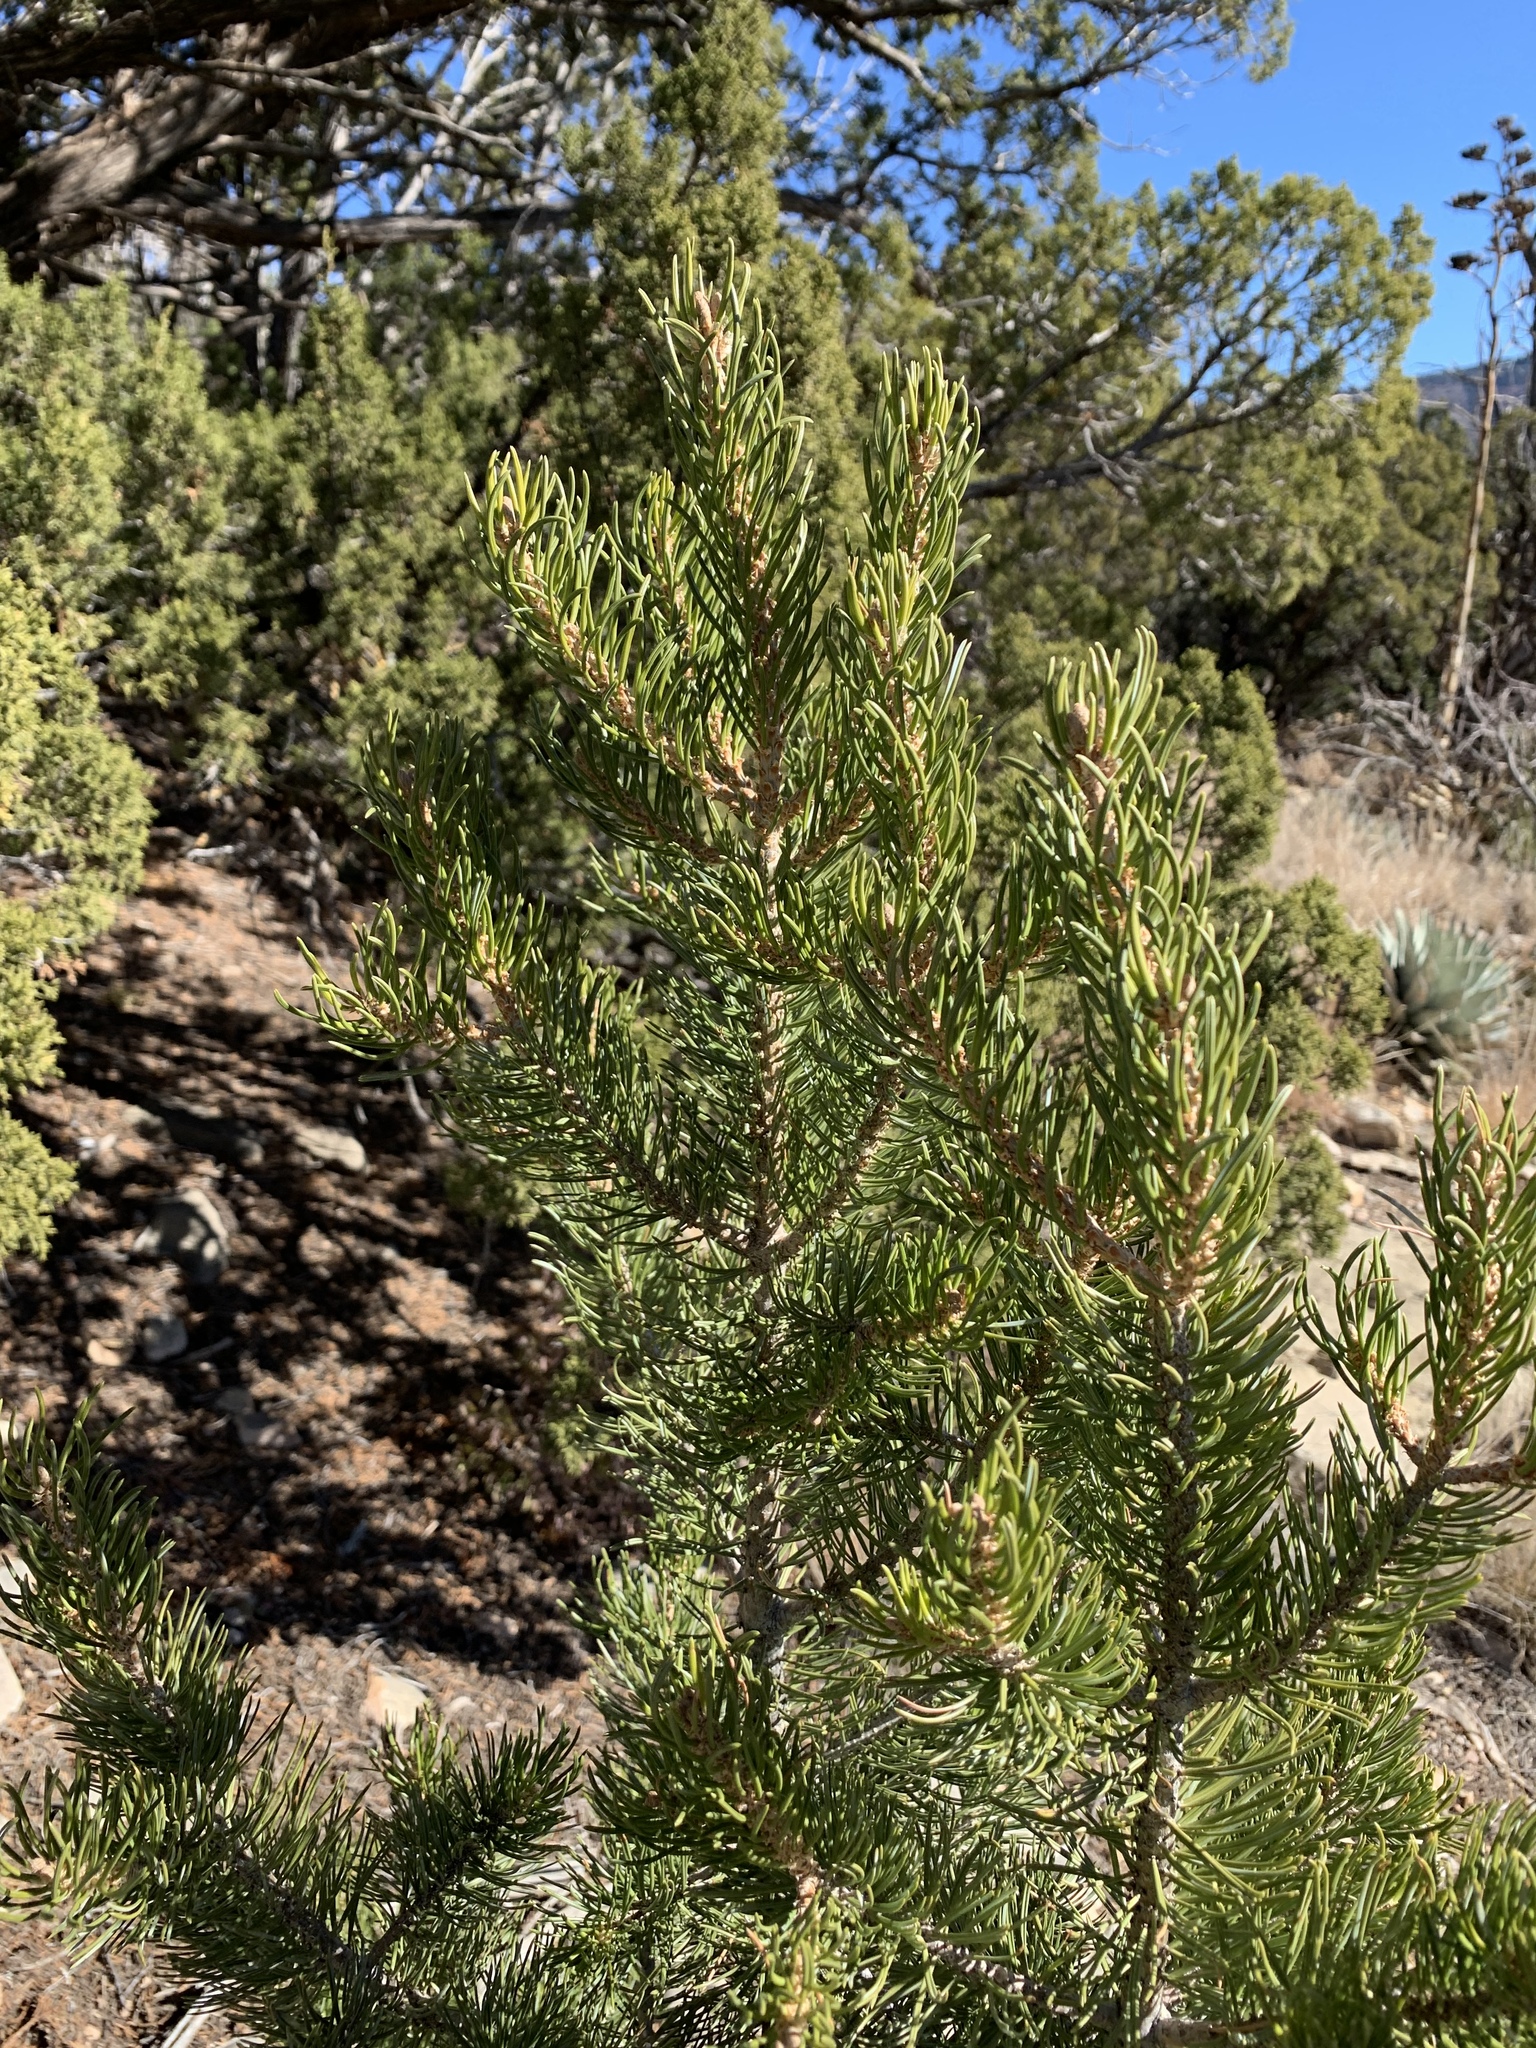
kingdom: Plantae
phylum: Tracheophyta
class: Pinopsida
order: Pinales
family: Pinaceae
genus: Pinus
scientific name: Pinus edulis
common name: Colorado pinyon
